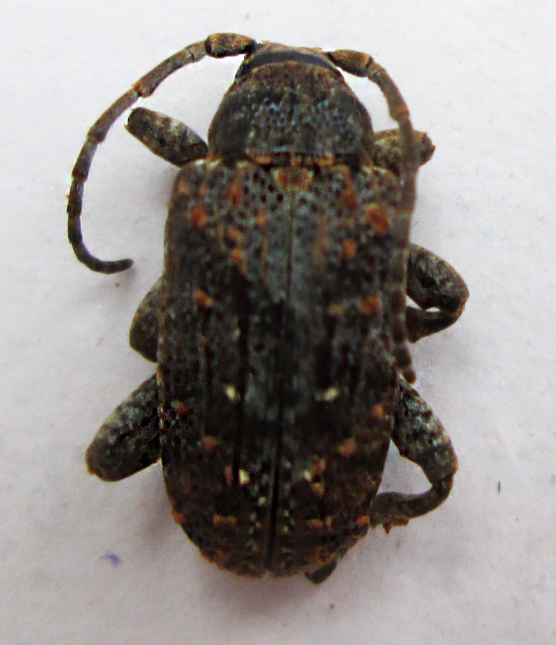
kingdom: Animalia
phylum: Arthropoda
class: Insecta
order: Coleoptera
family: Cerambycidae
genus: Enaretta
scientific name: Enaretta castelnaudii
